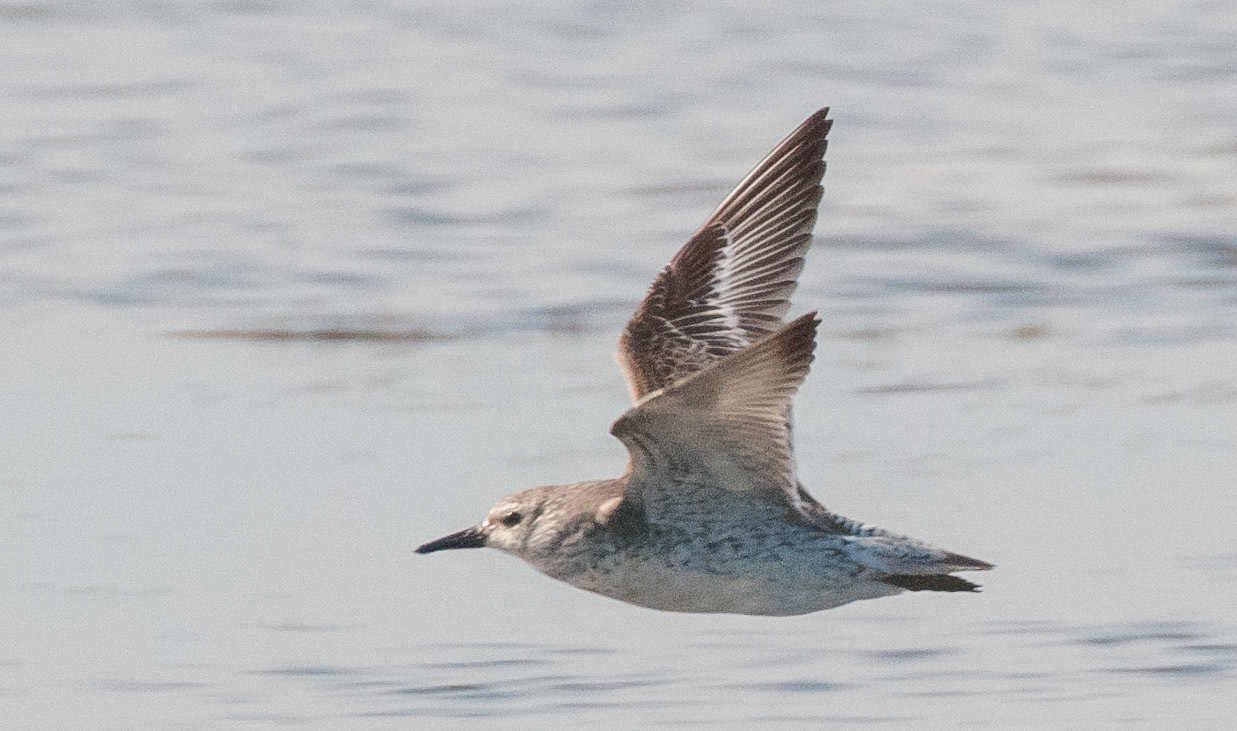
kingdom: Animalia
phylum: Chordata
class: Aves
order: Charadriiformes
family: Scolopacidae
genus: Calidris
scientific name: Calidris canutus
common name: Red knot
